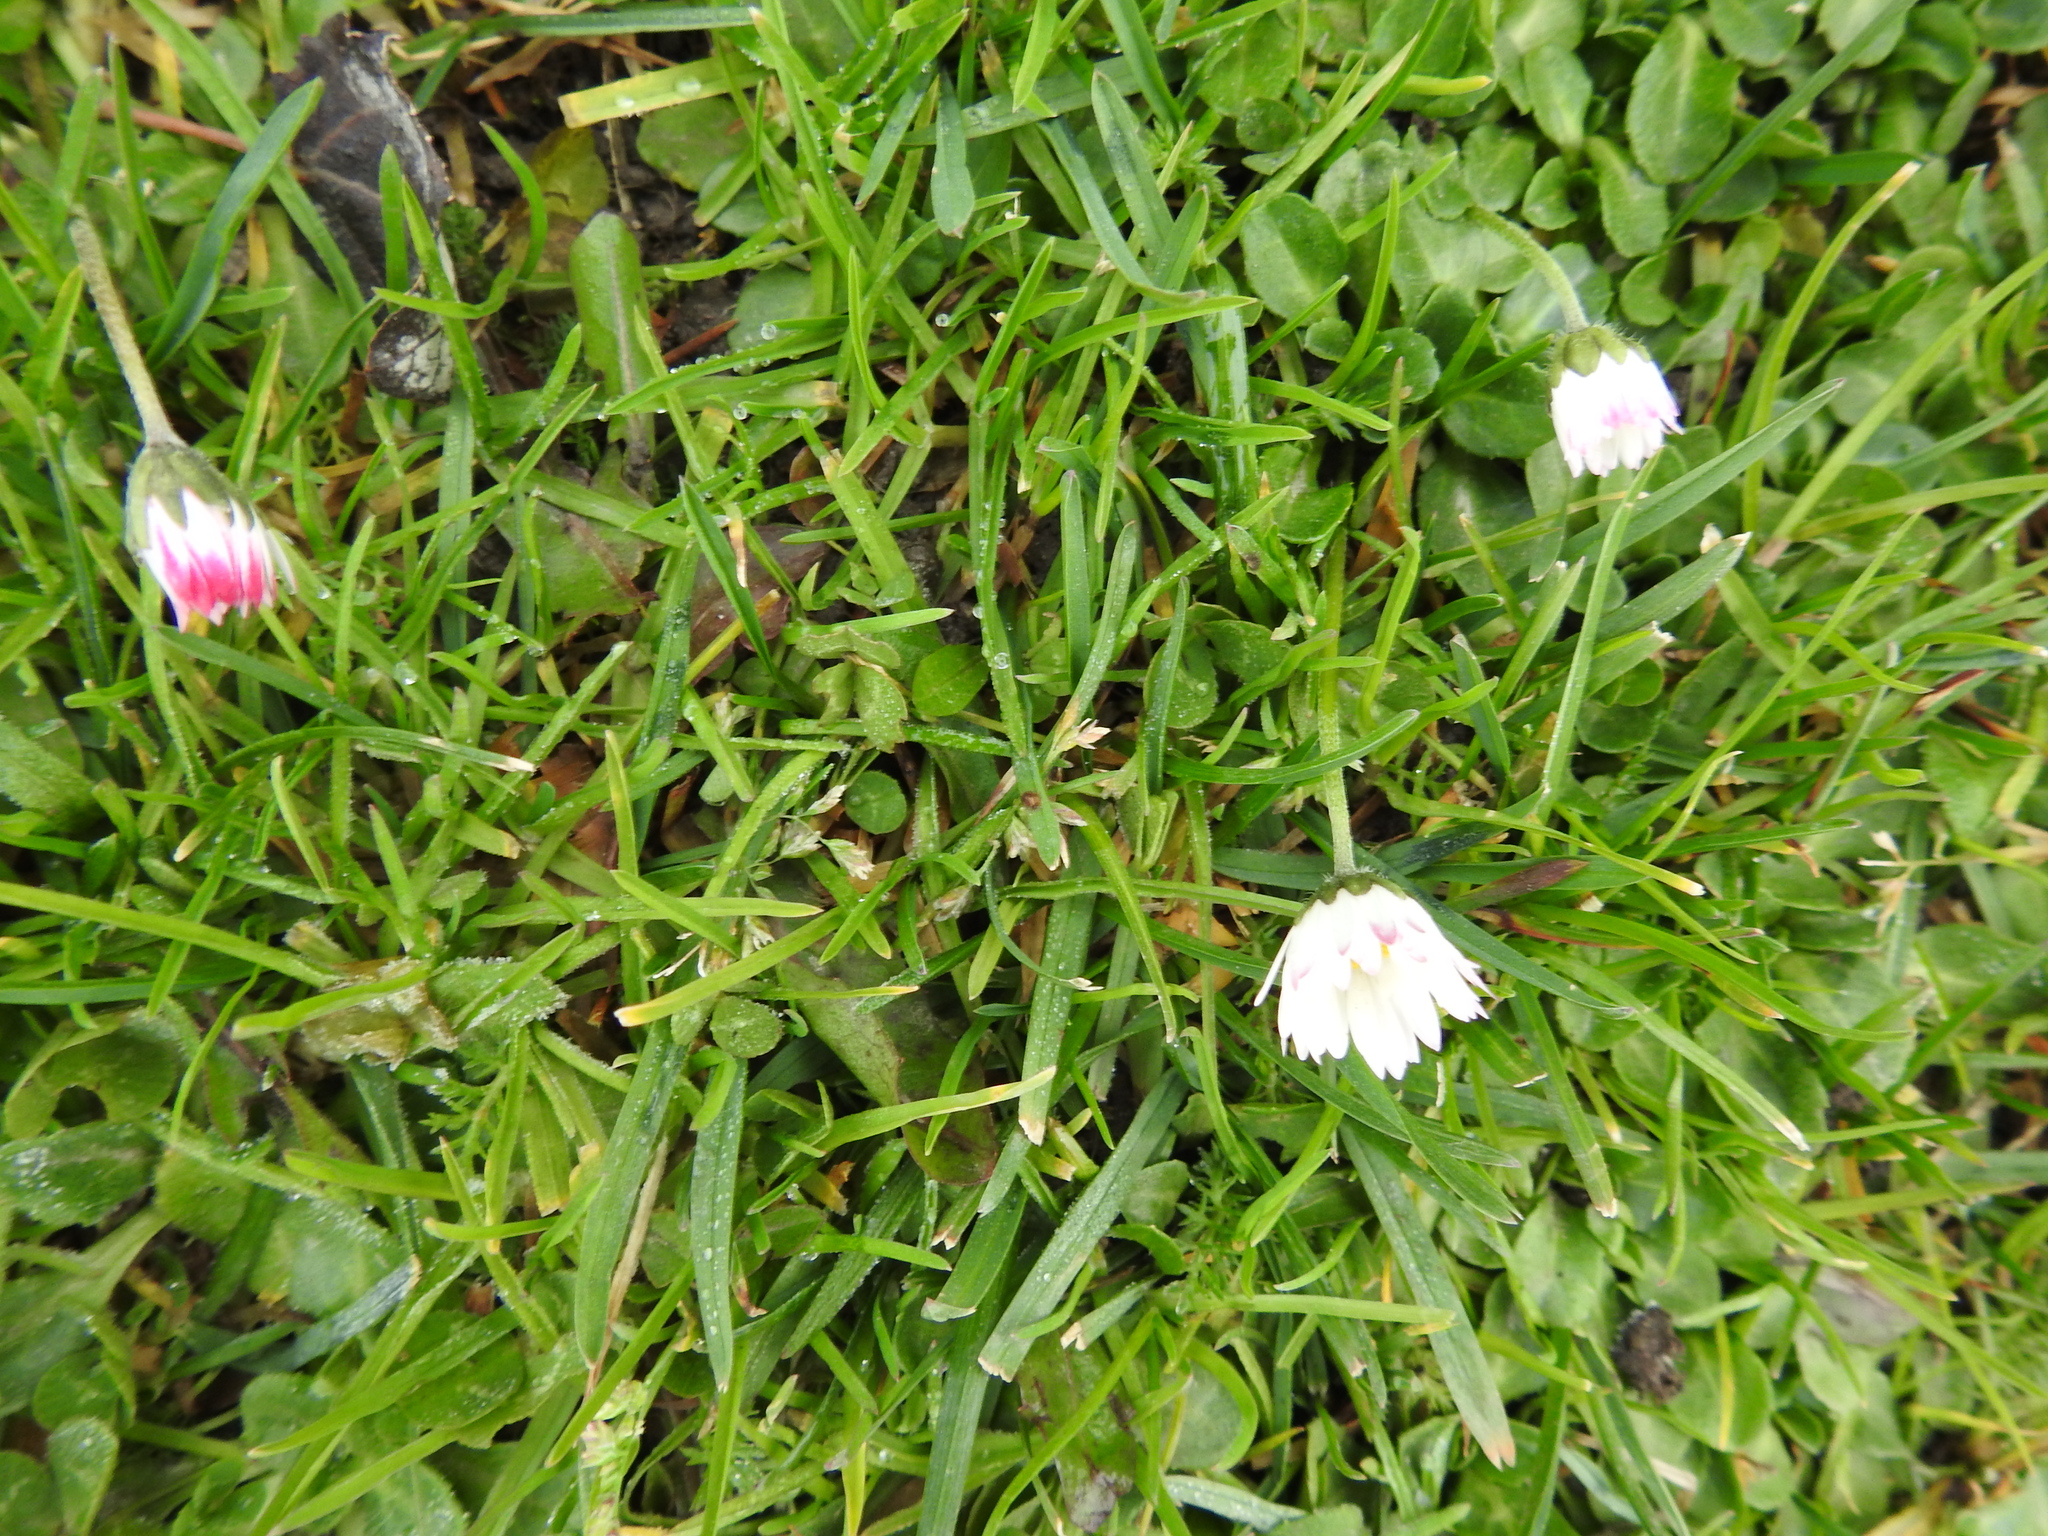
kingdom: Plantae
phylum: Tracheophyta
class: Magnoliopsida
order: Asterales
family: Asteraceae
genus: Bellis
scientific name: Bellis perennis
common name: Lawndaisy
